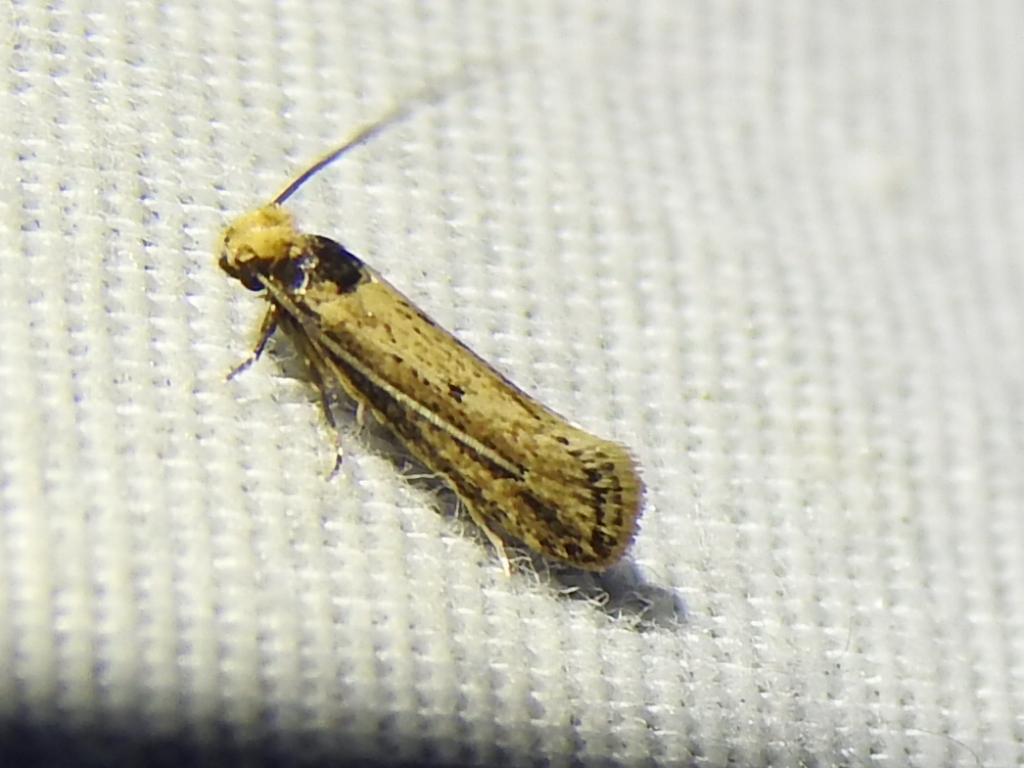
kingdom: Animalia
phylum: Arthropoda
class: Insecta
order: Lepidoptera
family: Tineidae
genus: Tinea
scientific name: Tinea apicimaculella
